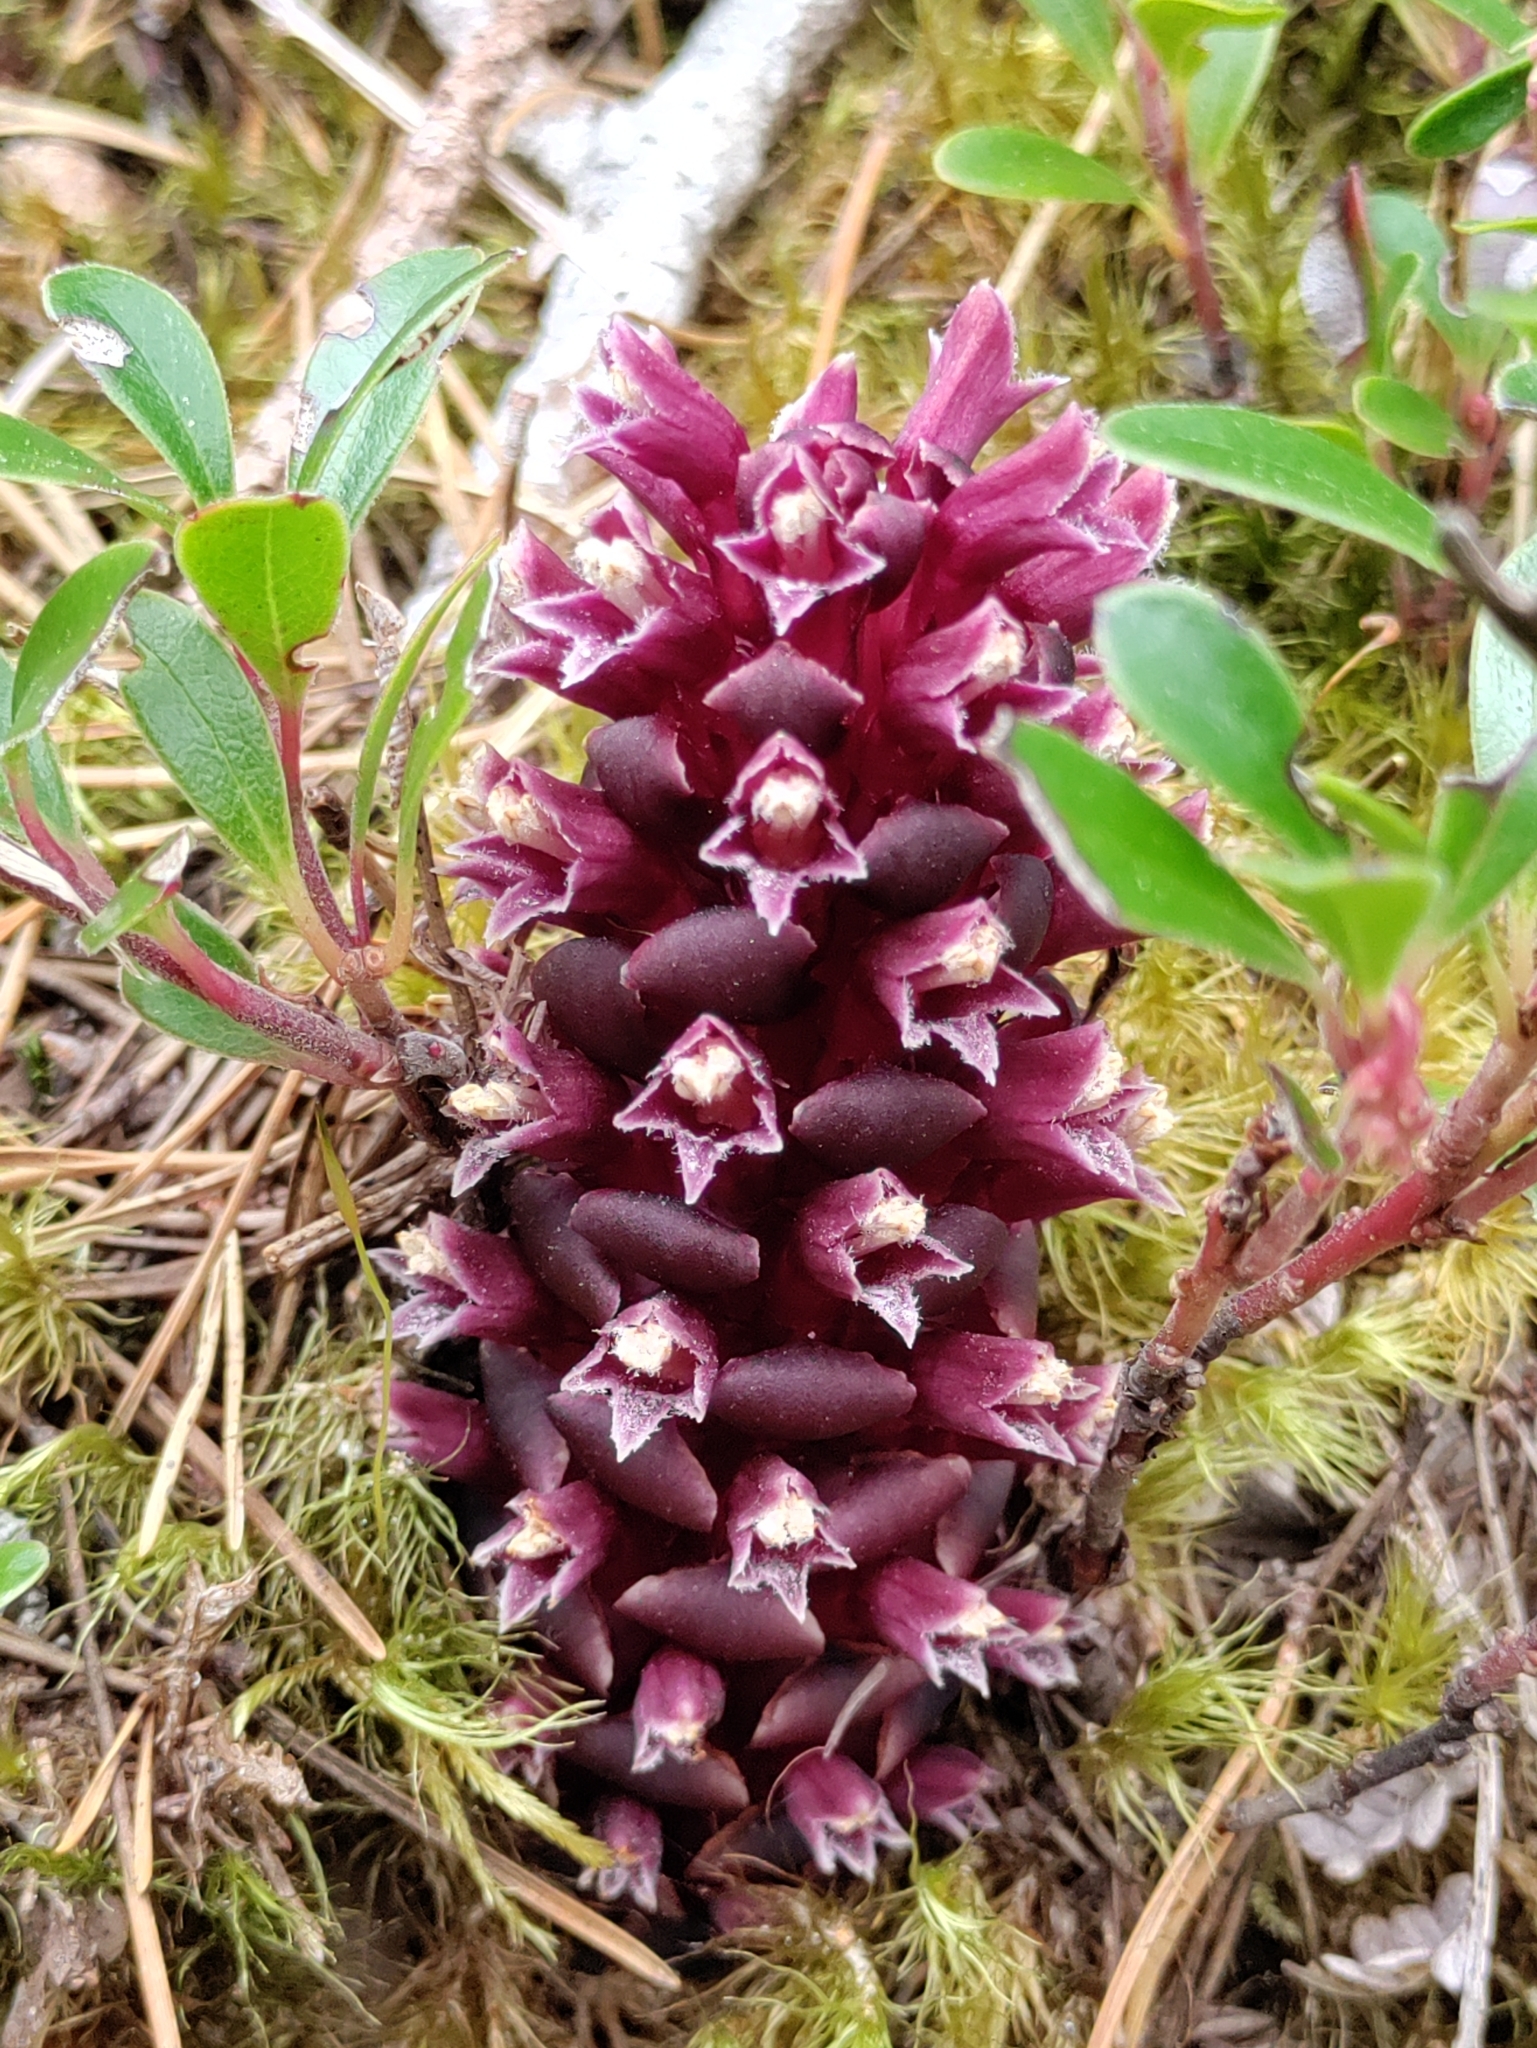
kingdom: Plantae
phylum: Tracheophyta
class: Magnoliopsida
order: Lamiales
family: Orobanchaceae
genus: Kopsiopsis
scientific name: Kopsiopsis hookeri
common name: Hooker's groundcone
